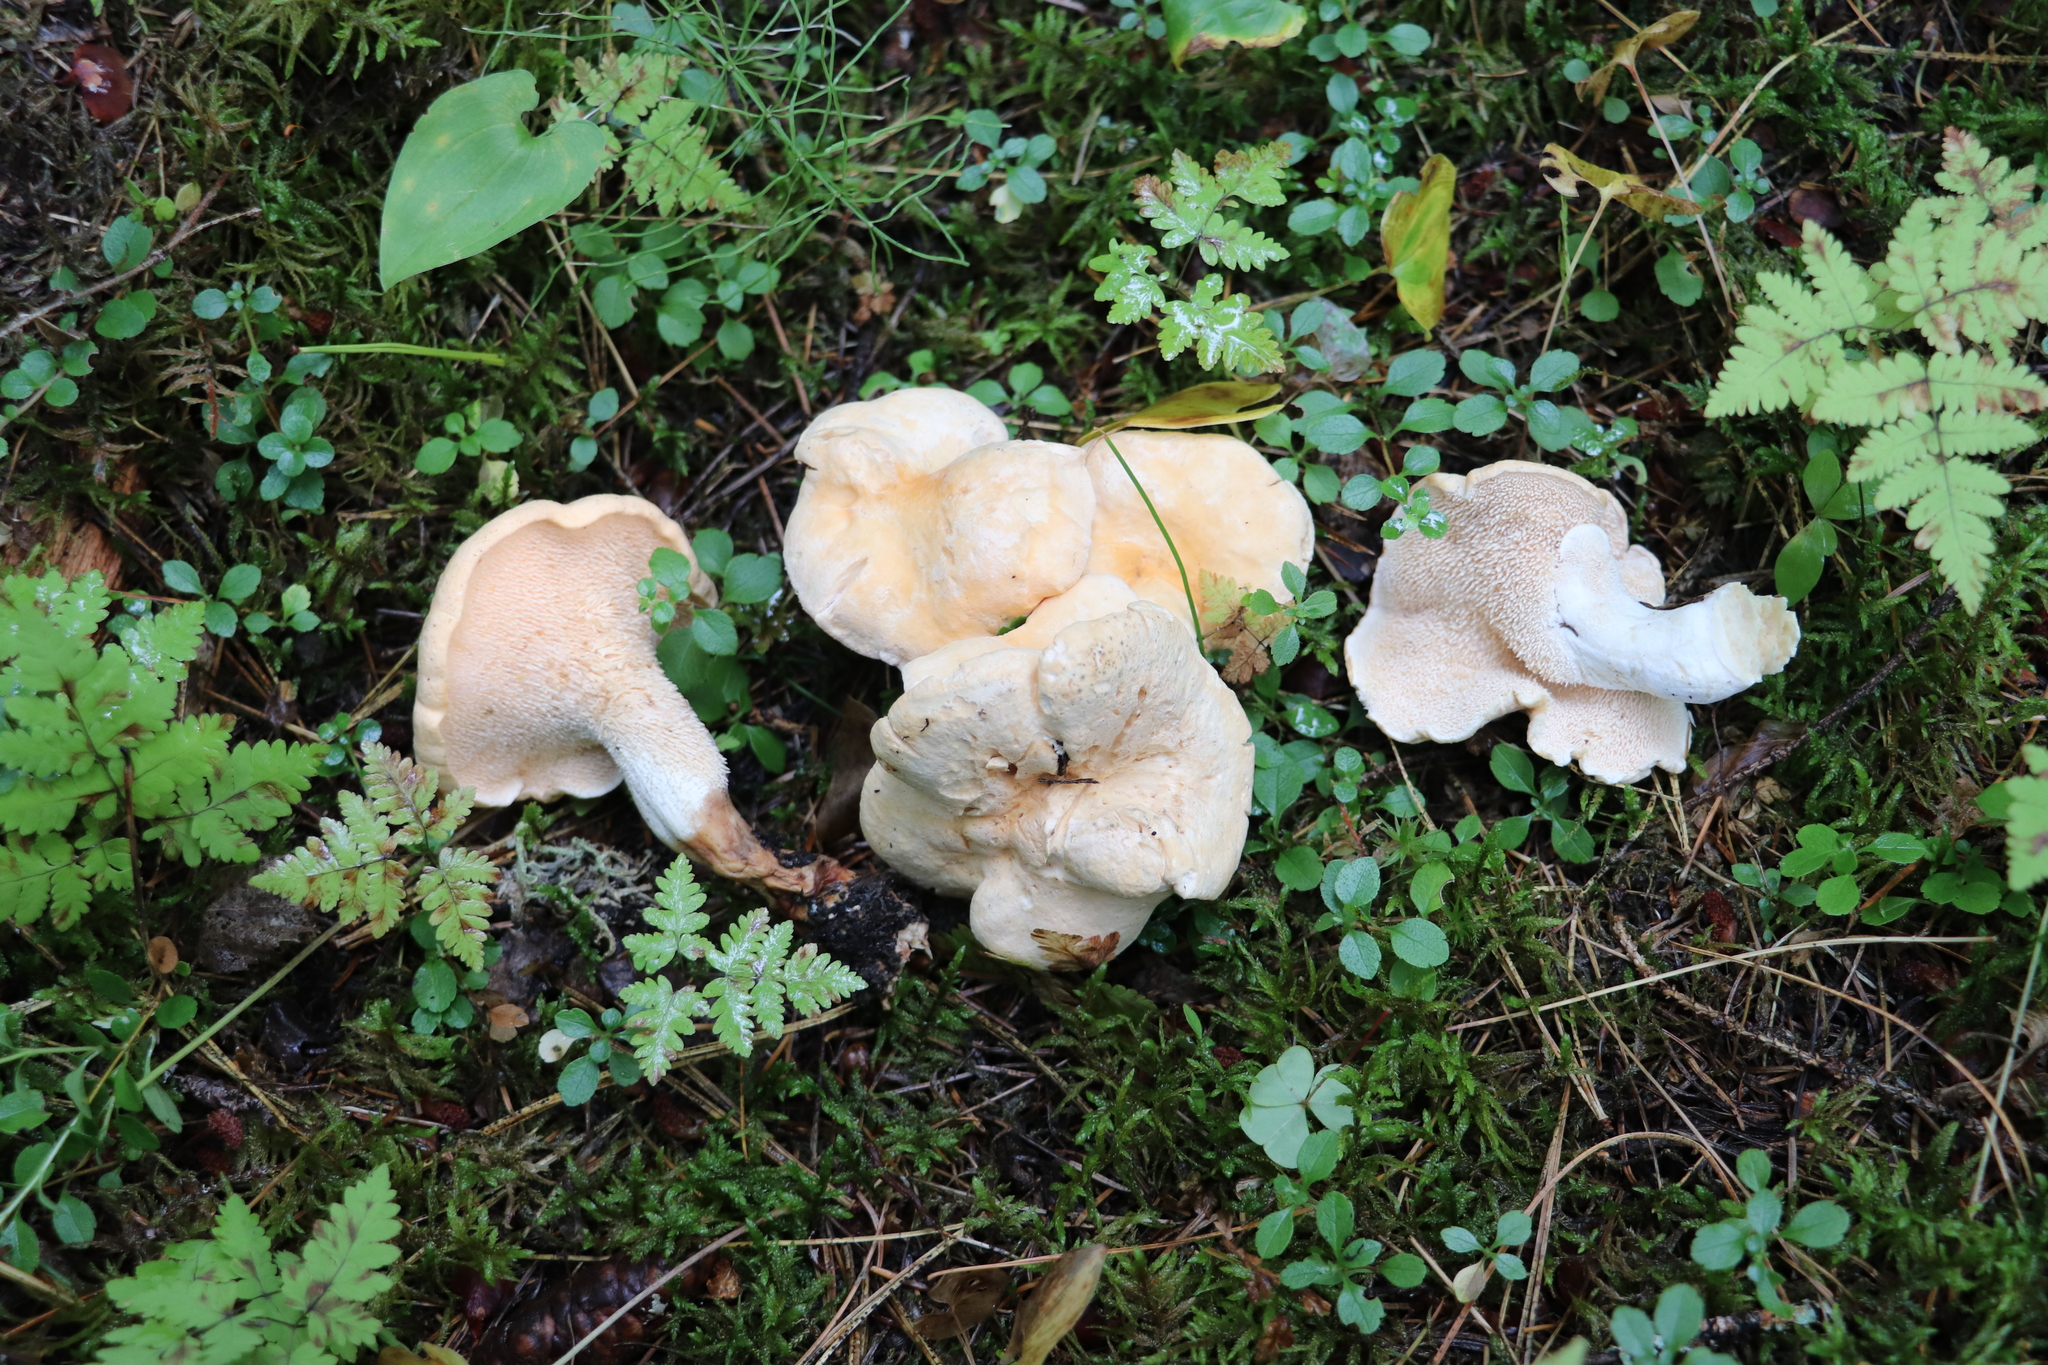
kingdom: Fungi
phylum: Basidiomycota
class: Agaricomycetes
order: Cantharellales
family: Hydnaceae
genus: Hydnum
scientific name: Hydnum repandum
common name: Wood hedgehog
